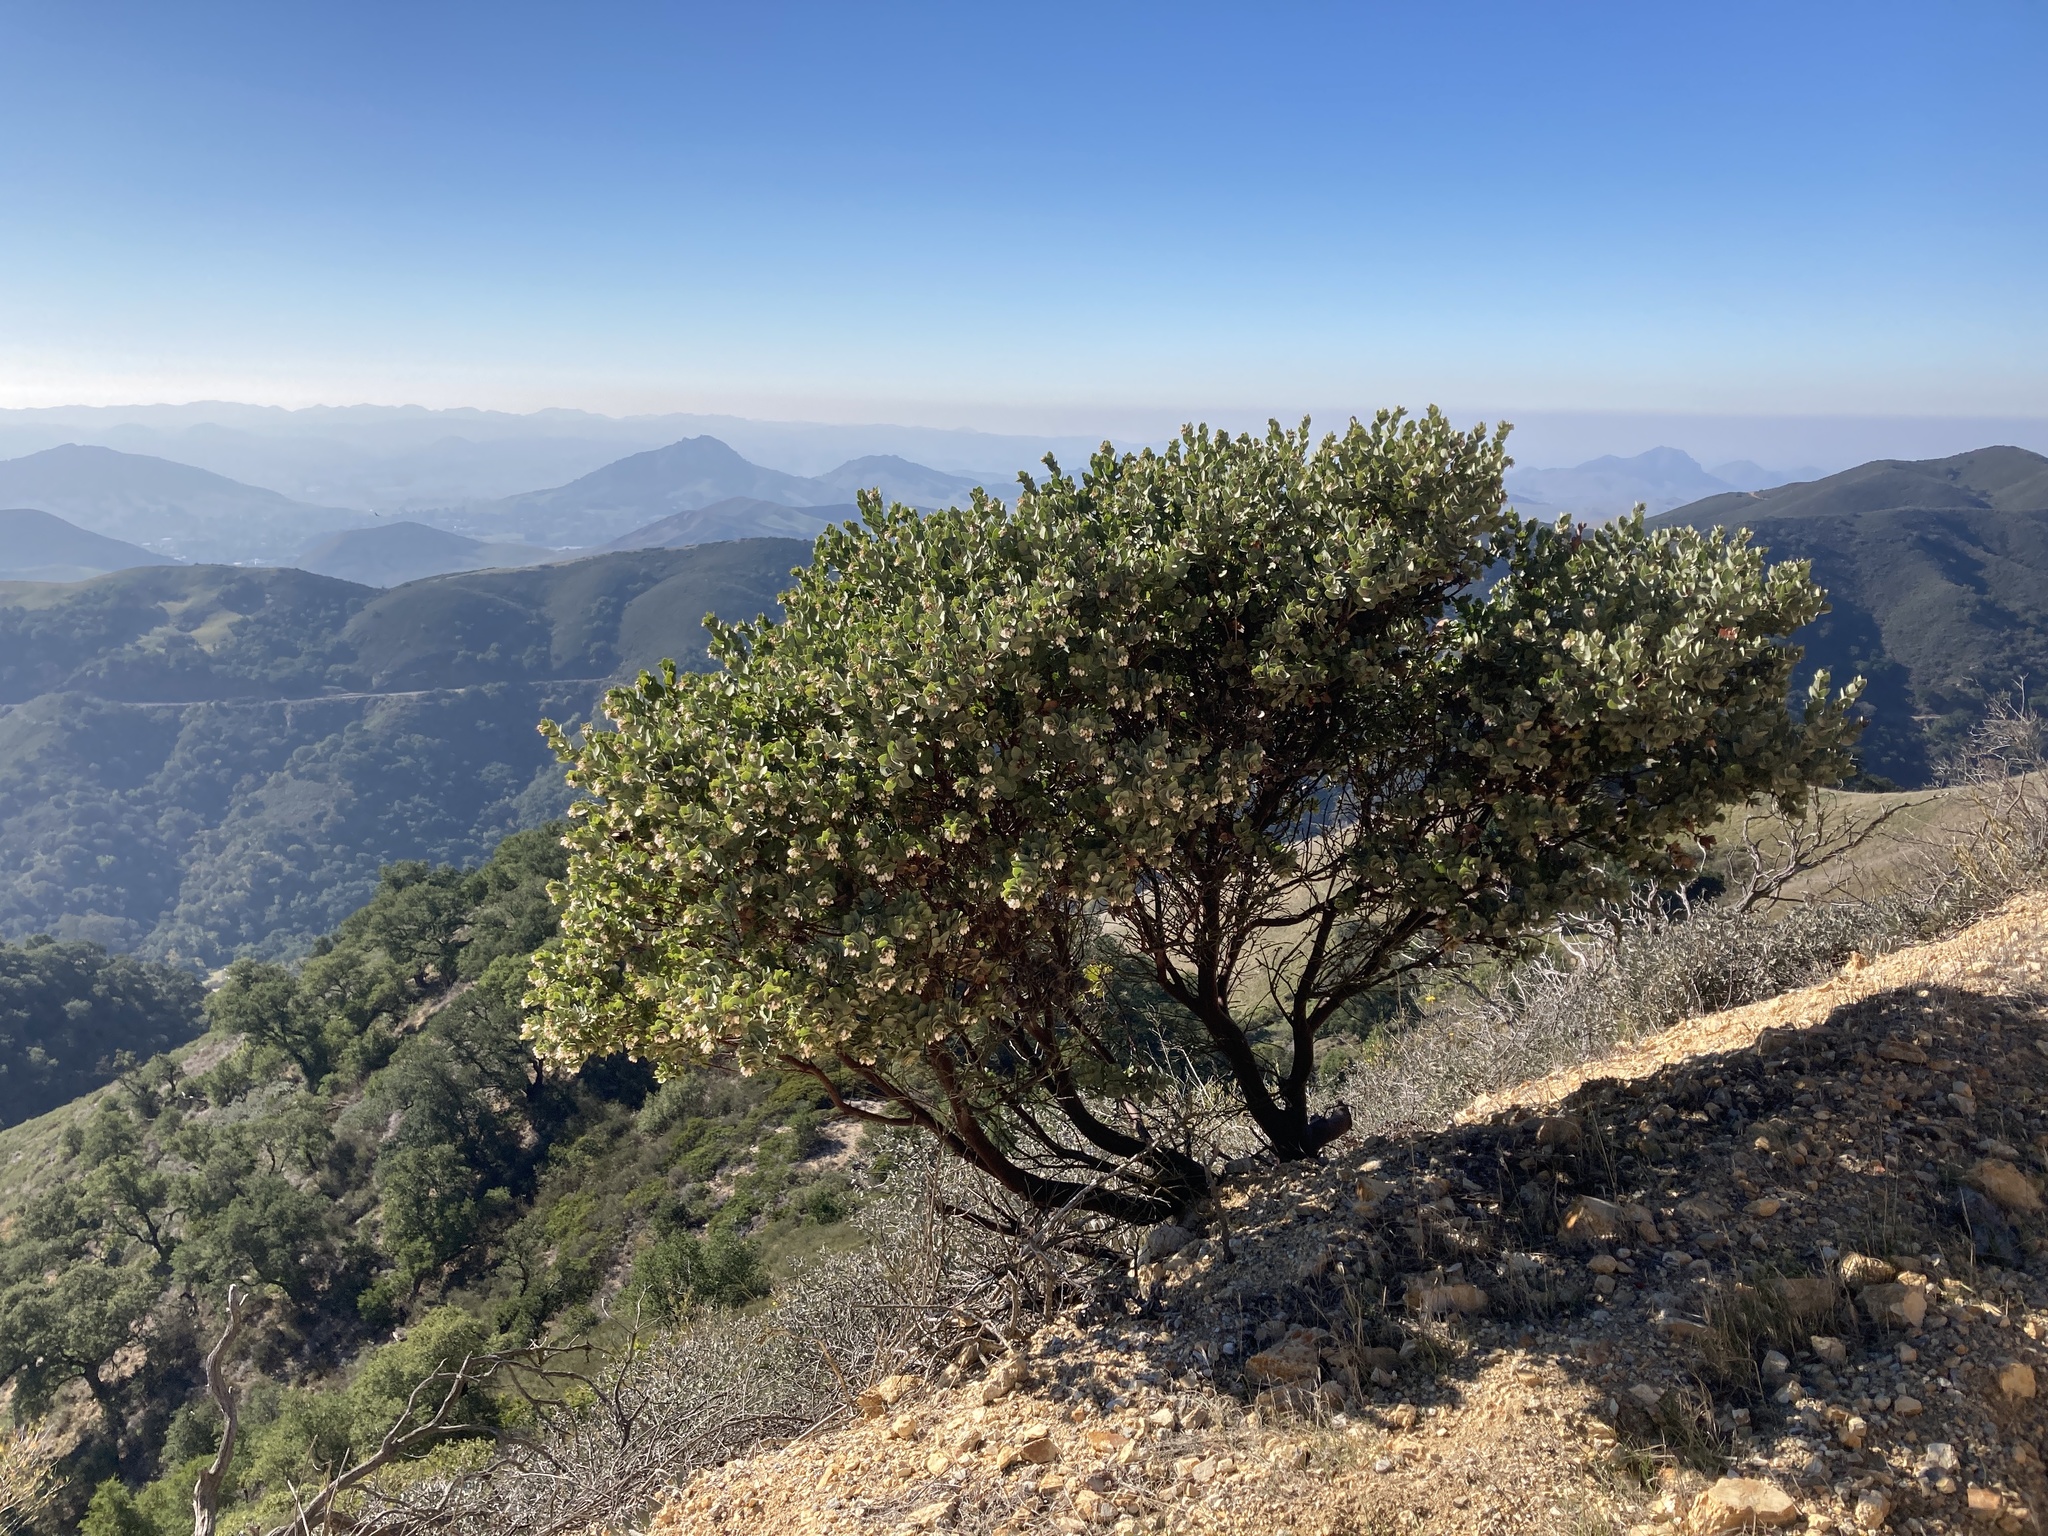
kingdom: Plantae
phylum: Tracheophyta
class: Magnoliopsida
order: Ericales
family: Ericaceae
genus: Arctostaphylos
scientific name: Arctostaphylos luciana
